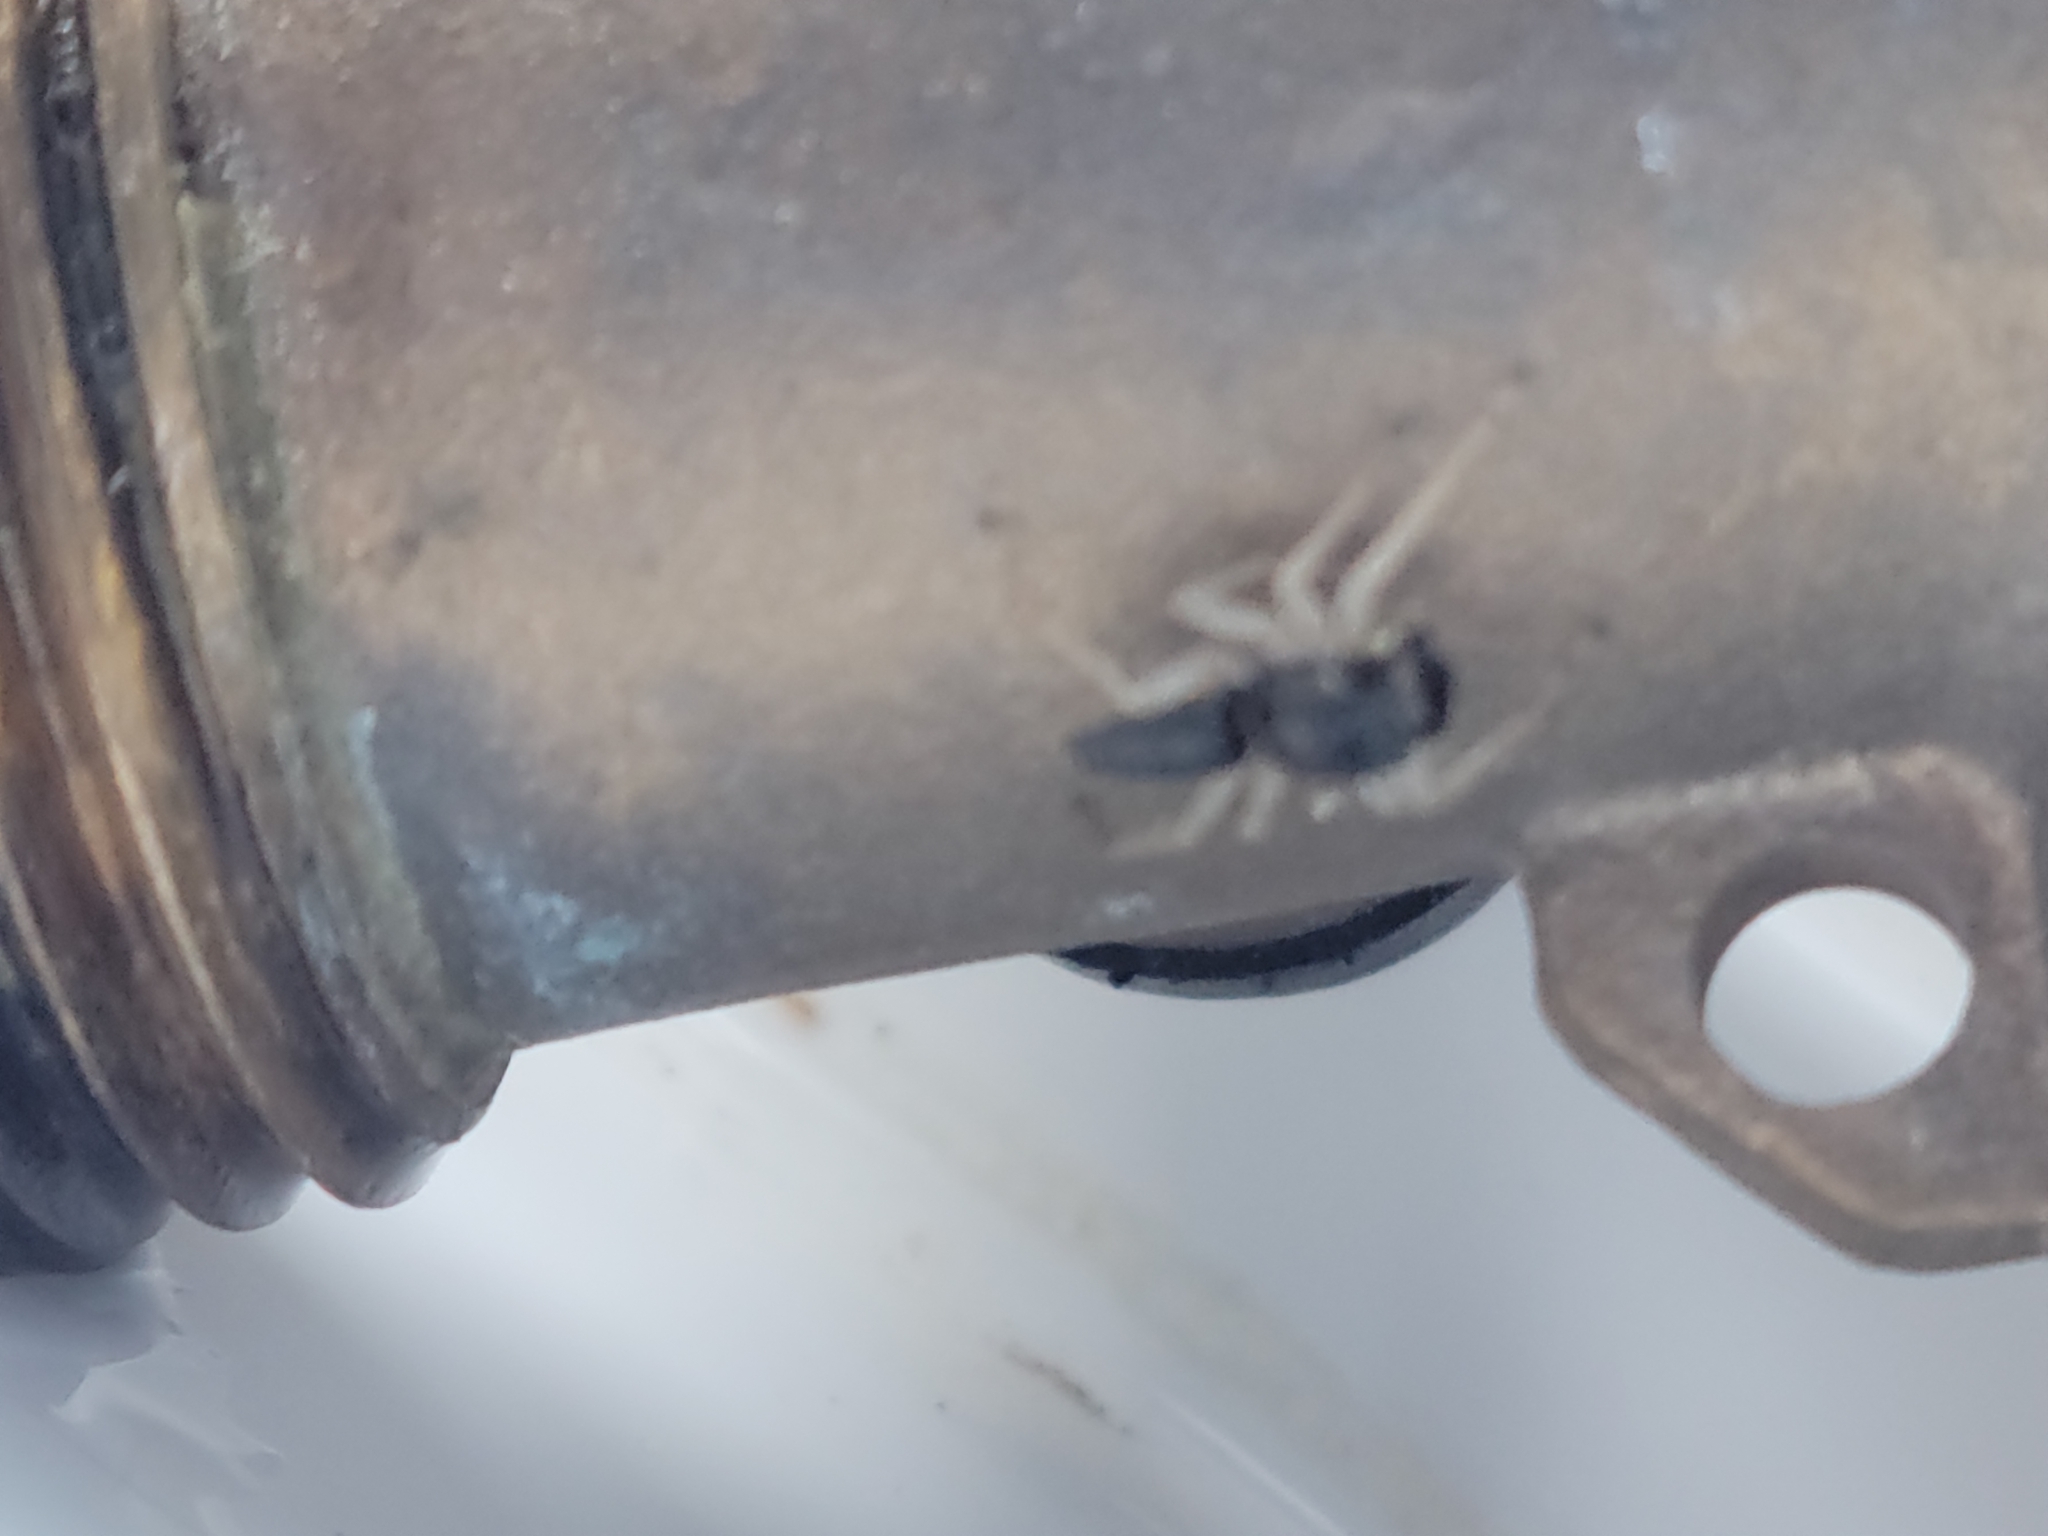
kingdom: Animalia
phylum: Arthropoda
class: Arachnida
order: Araneae
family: Salticidae
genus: Maevia
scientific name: Maevia inclemens
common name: Dimorphic jumper
